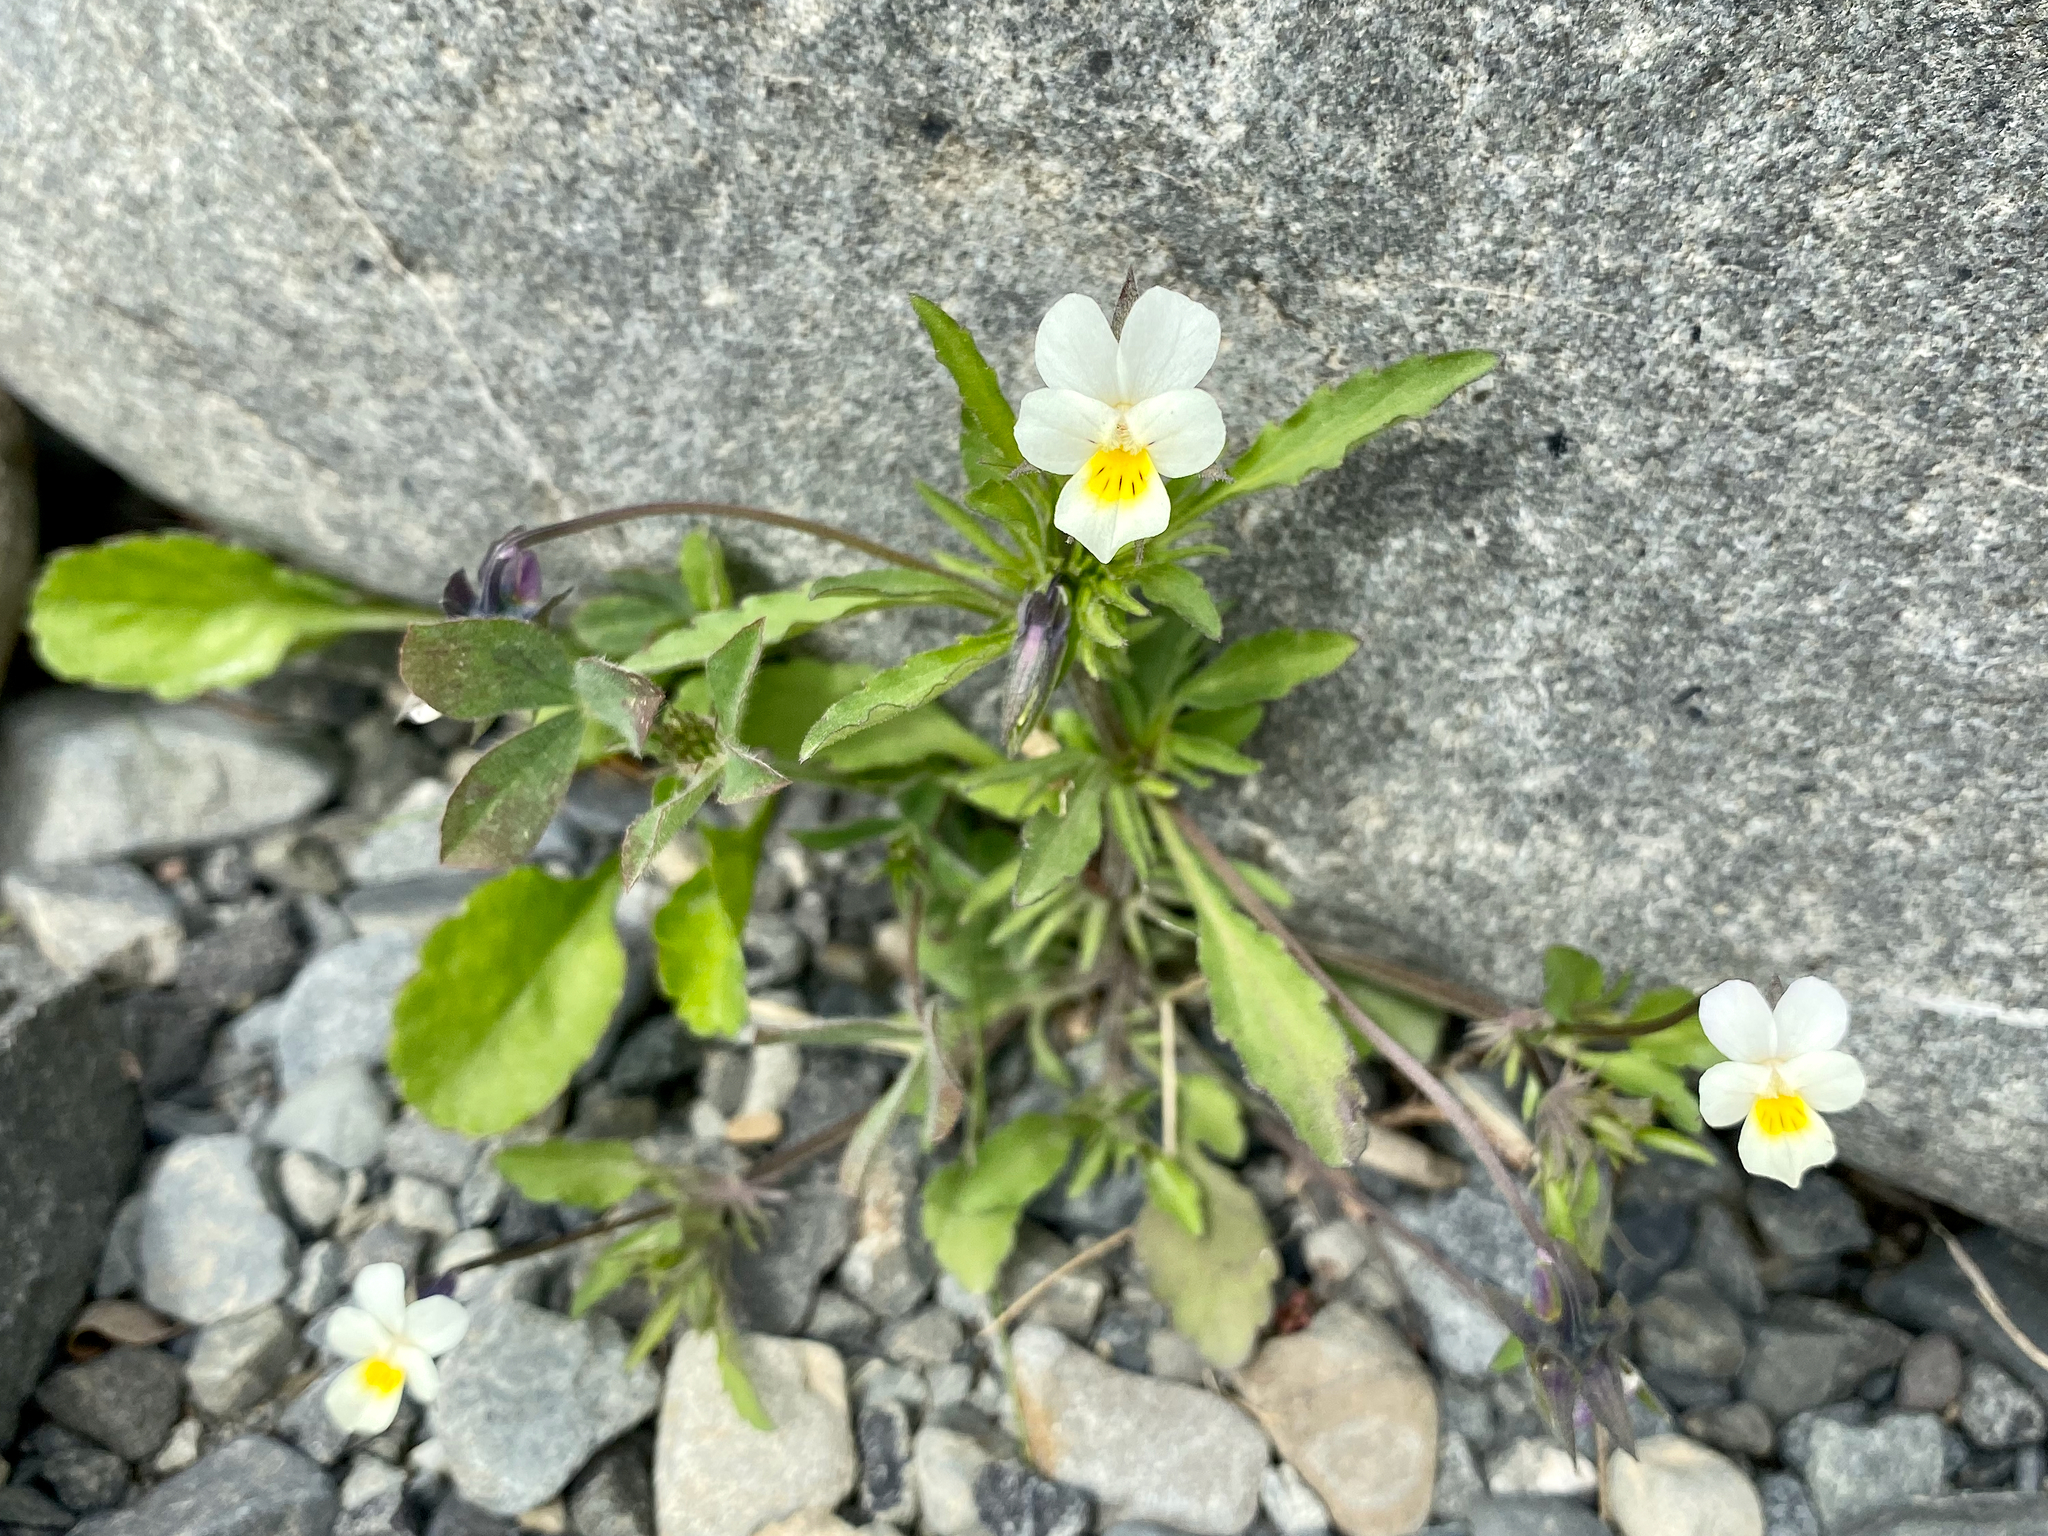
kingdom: Plantae
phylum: Tracheophyta
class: Magnoliopsida
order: Malpighiales
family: Violaceae
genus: Viola
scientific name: Viola arvensis
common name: Field pansy
